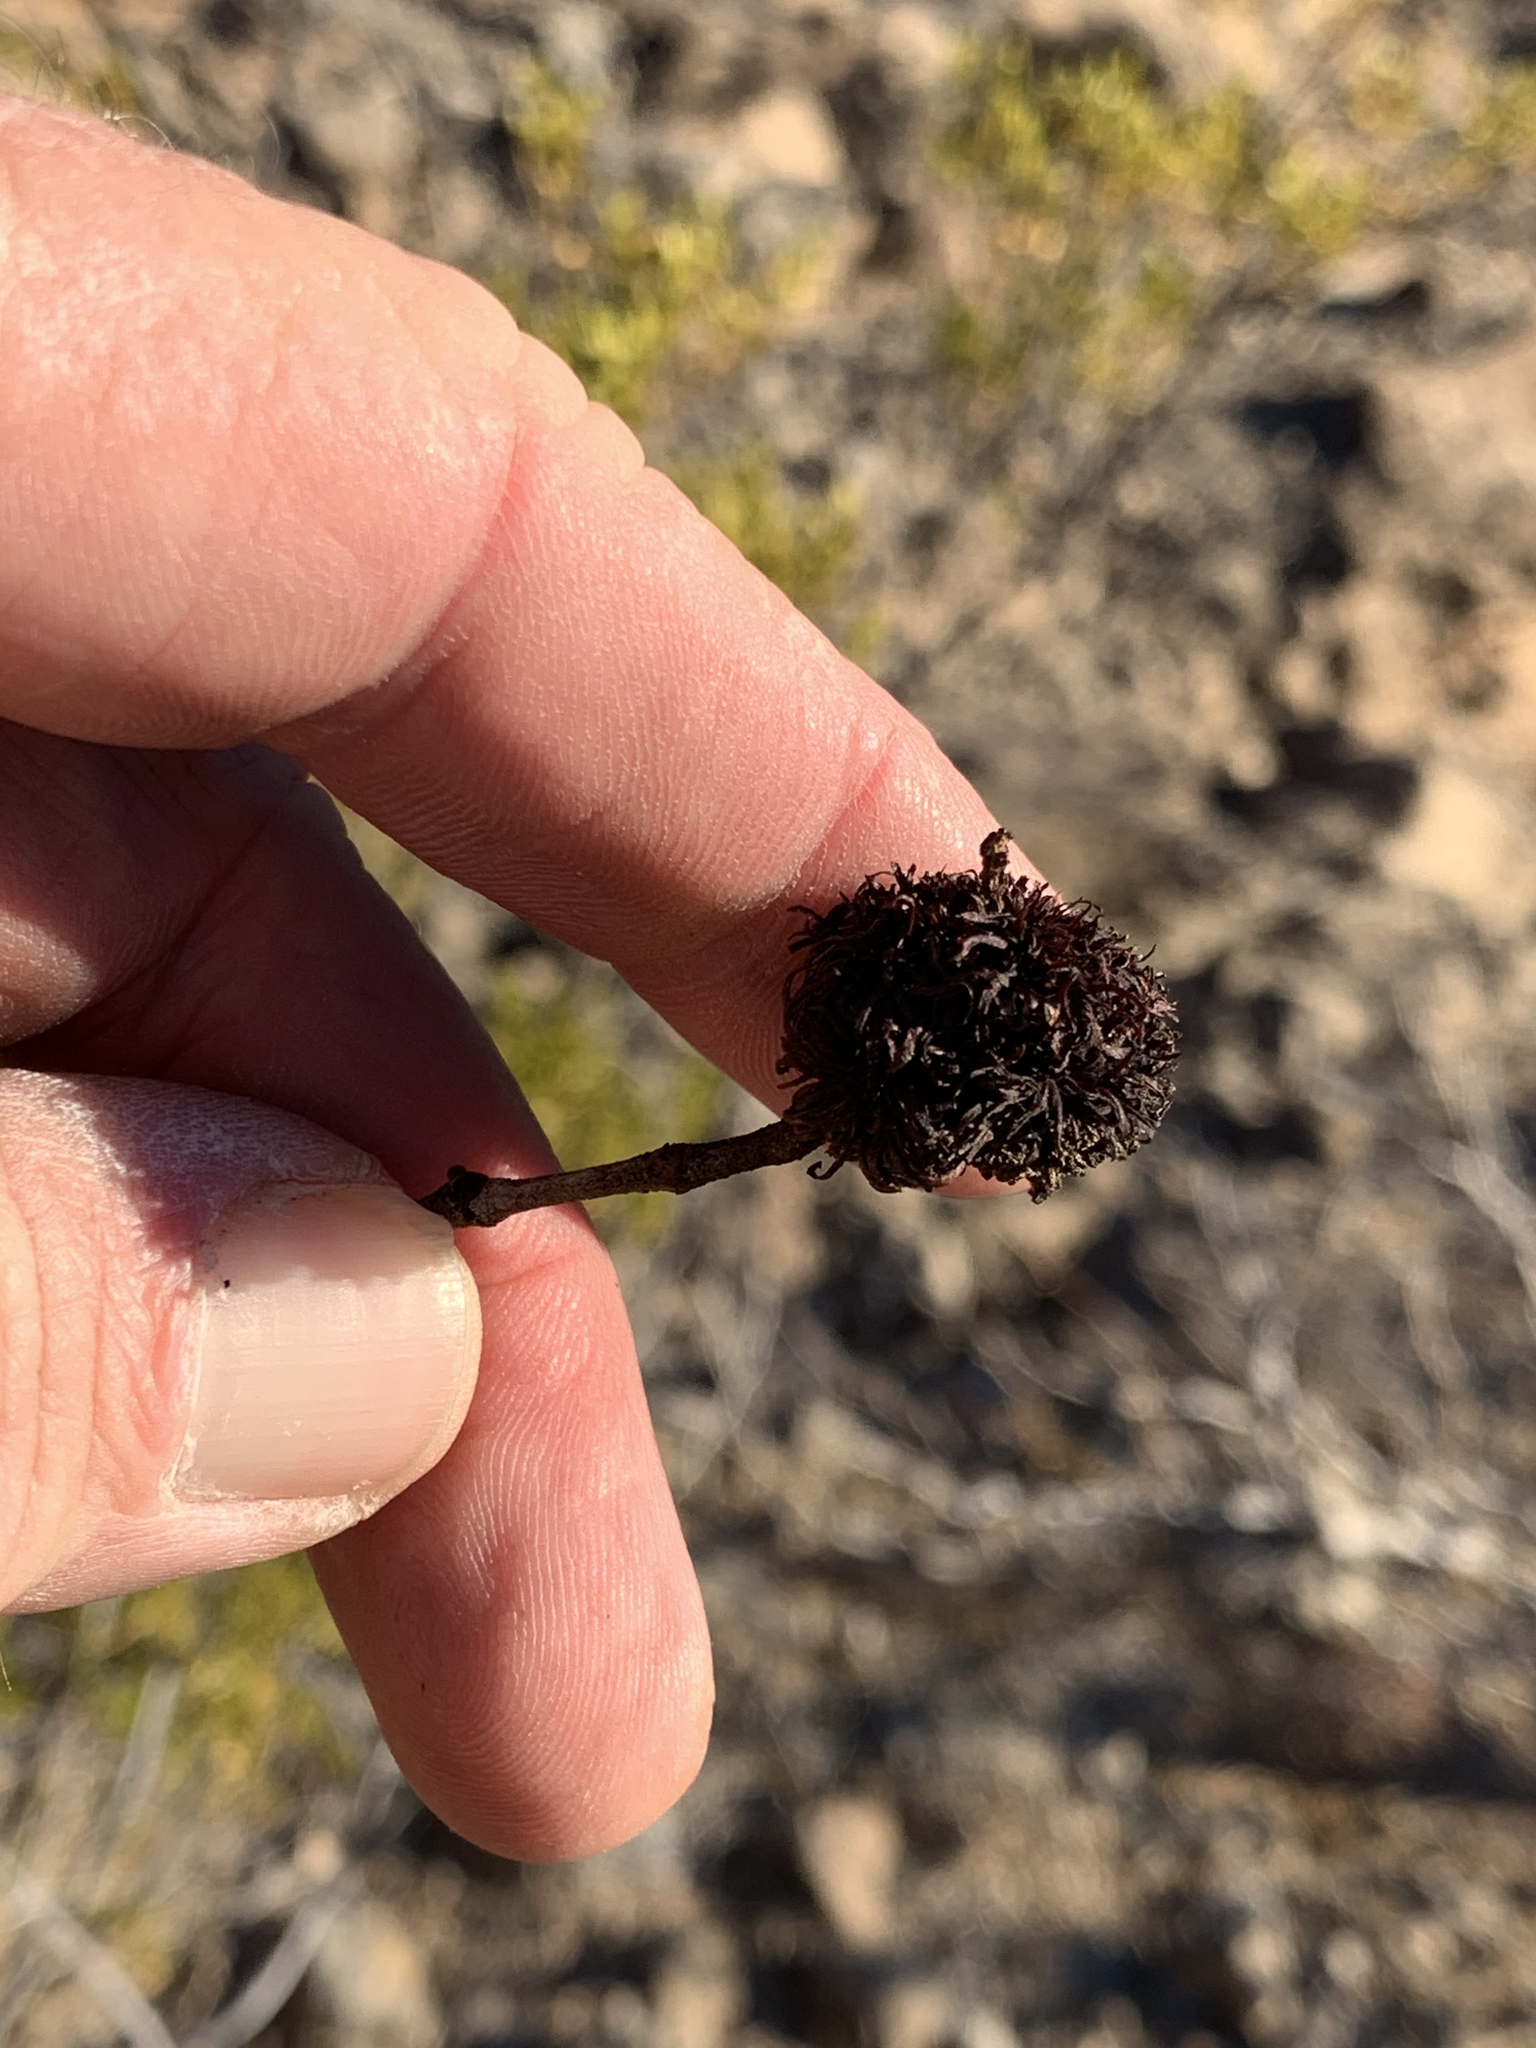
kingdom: Animalia
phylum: Arthropoda
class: Insecta
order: Diptera
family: Cecidomyiidae
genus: Asphondylia
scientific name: Asphondylia auripila
